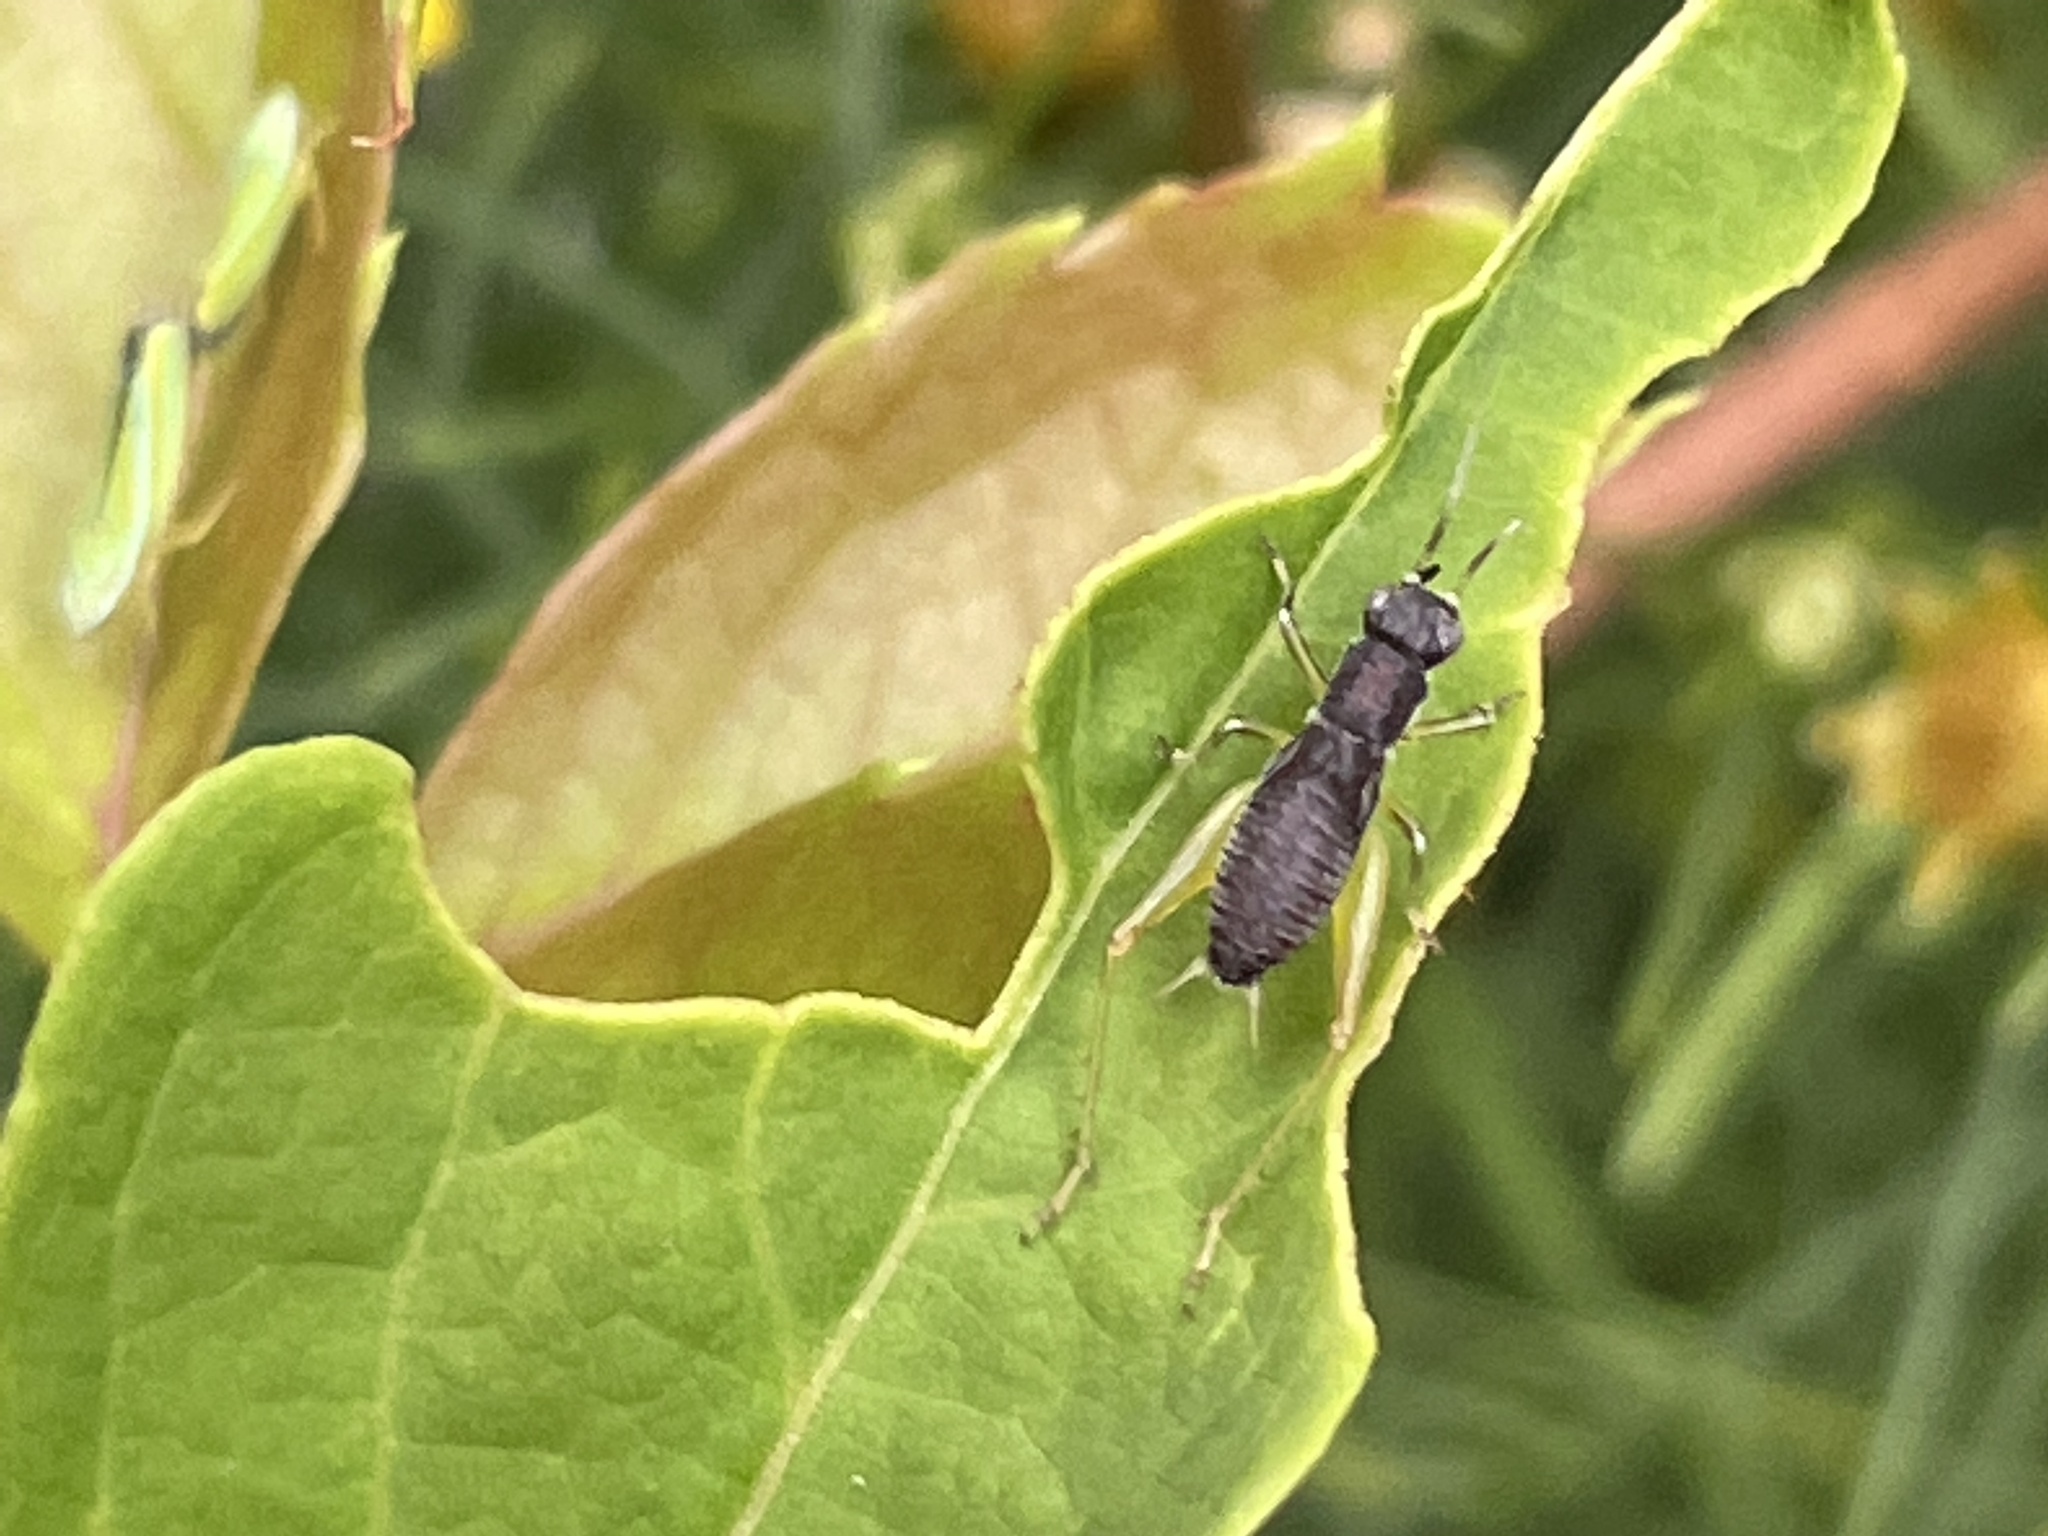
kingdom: Animalia
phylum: Arthropoda
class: Insecta
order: Orthoptera
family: Trigonidiidae
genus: Phyllopalpus
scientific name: Phyllopalpus pulchellus
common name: Handsome trig
